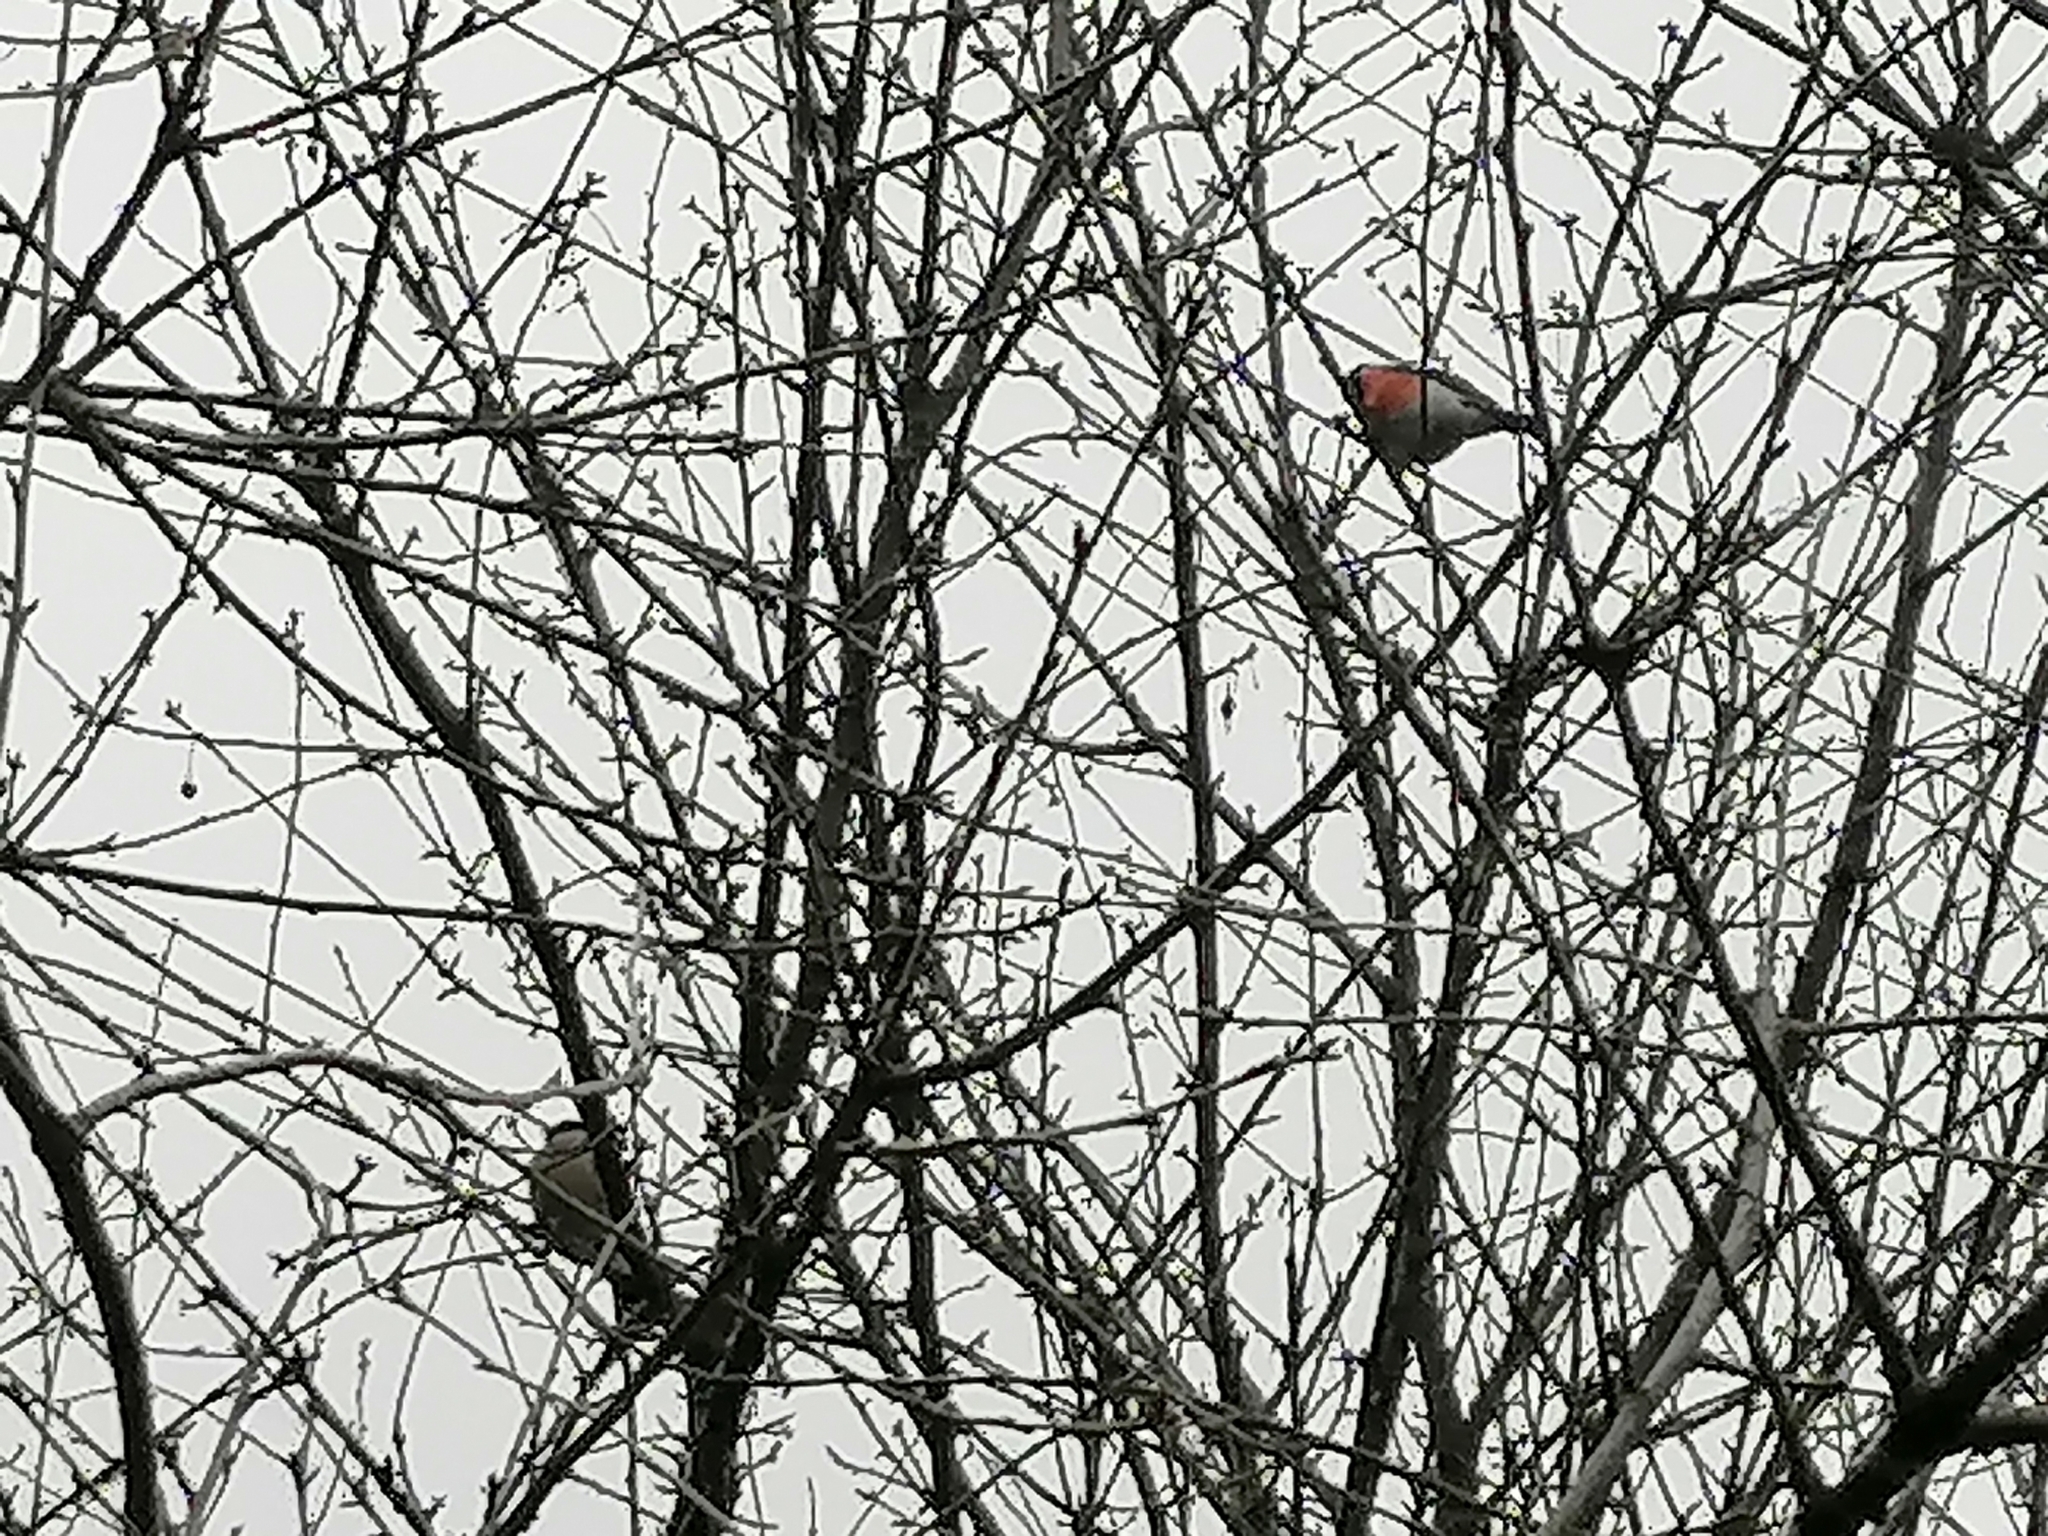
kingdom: Animalia
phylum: Chordata
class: Aves
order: Passeriformes
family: Fringillidae
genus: Pyrrhula
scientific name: Pyrrhula pyrrhula
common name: Eurasian bullfinch
